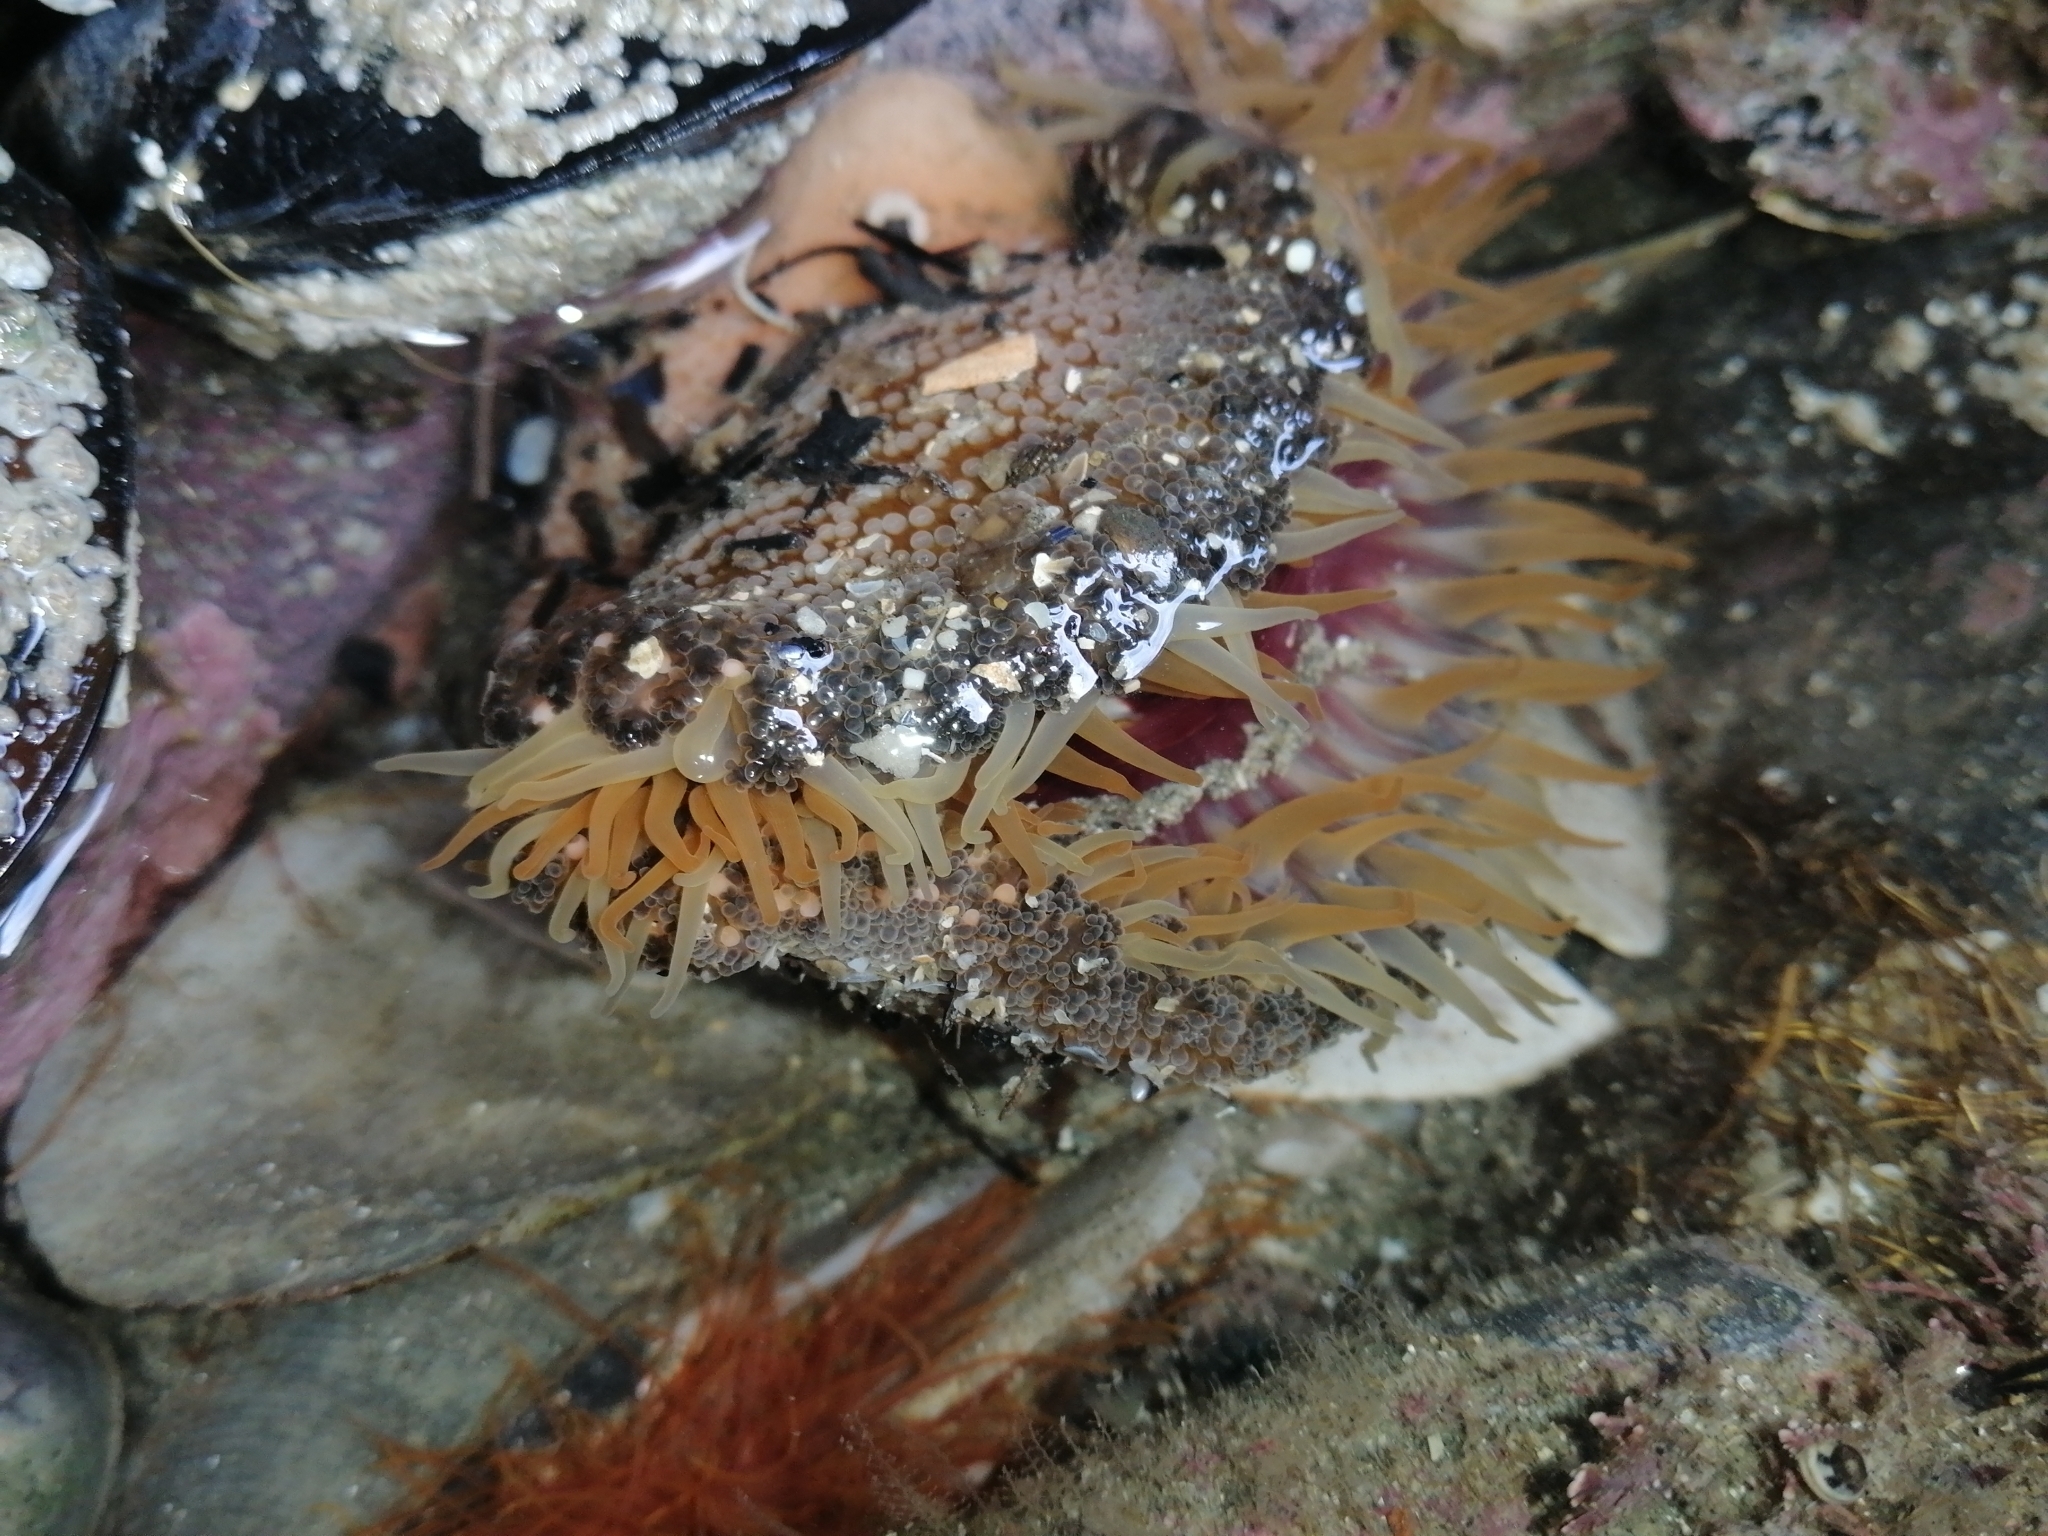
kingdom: Animalia
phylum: Cnidaria
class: Anthozoa
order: Actiniaria
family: Actiniidae
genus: Oulactis
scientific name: Oulactis magna
